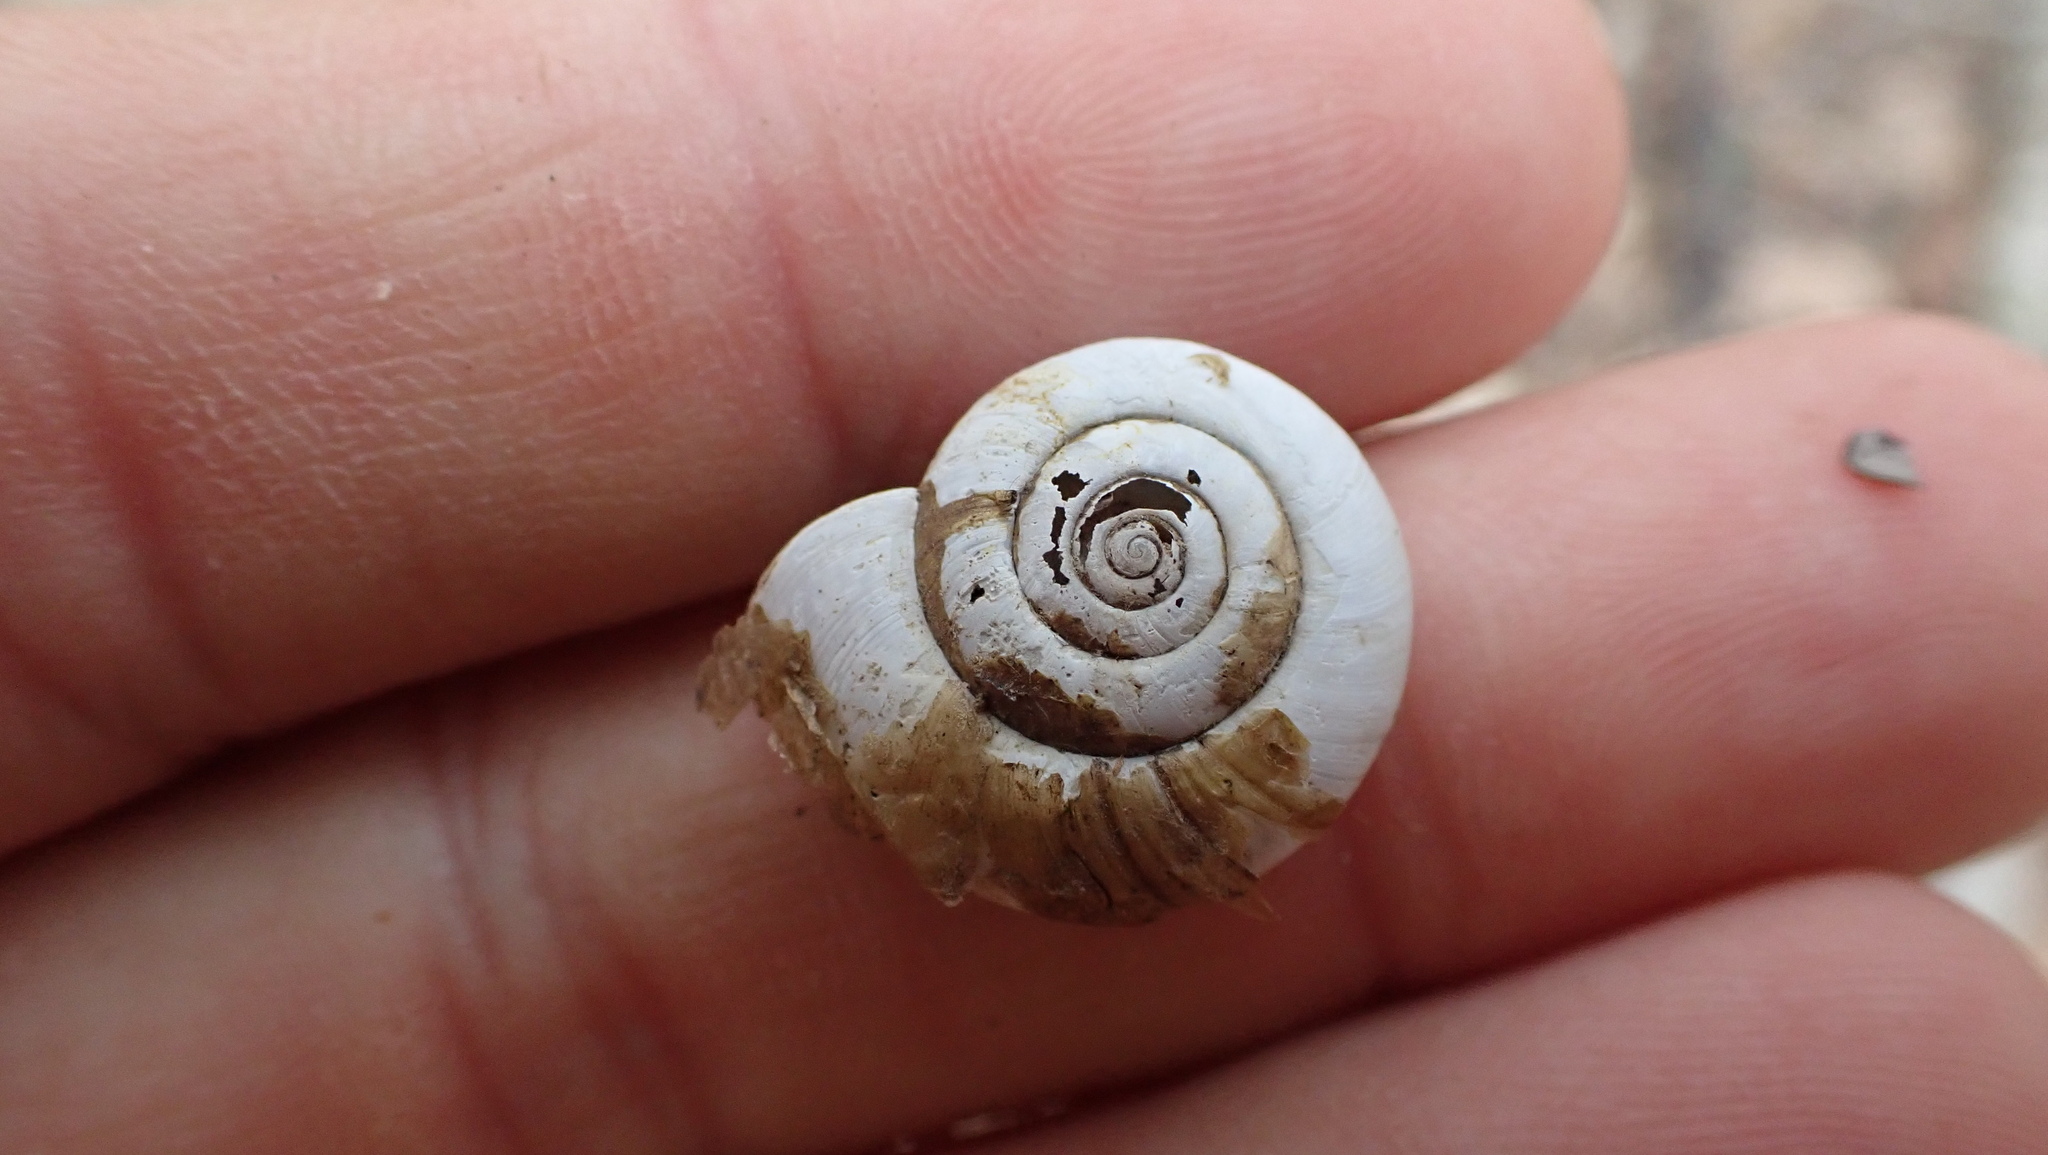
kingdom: Animalia
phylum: Mollusca
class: Gastropoda
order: Stylommatophora
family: Haplotrematidae
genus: Haplotrema
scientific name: Haplotrema concavum
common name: Gray-foot lancetooth
